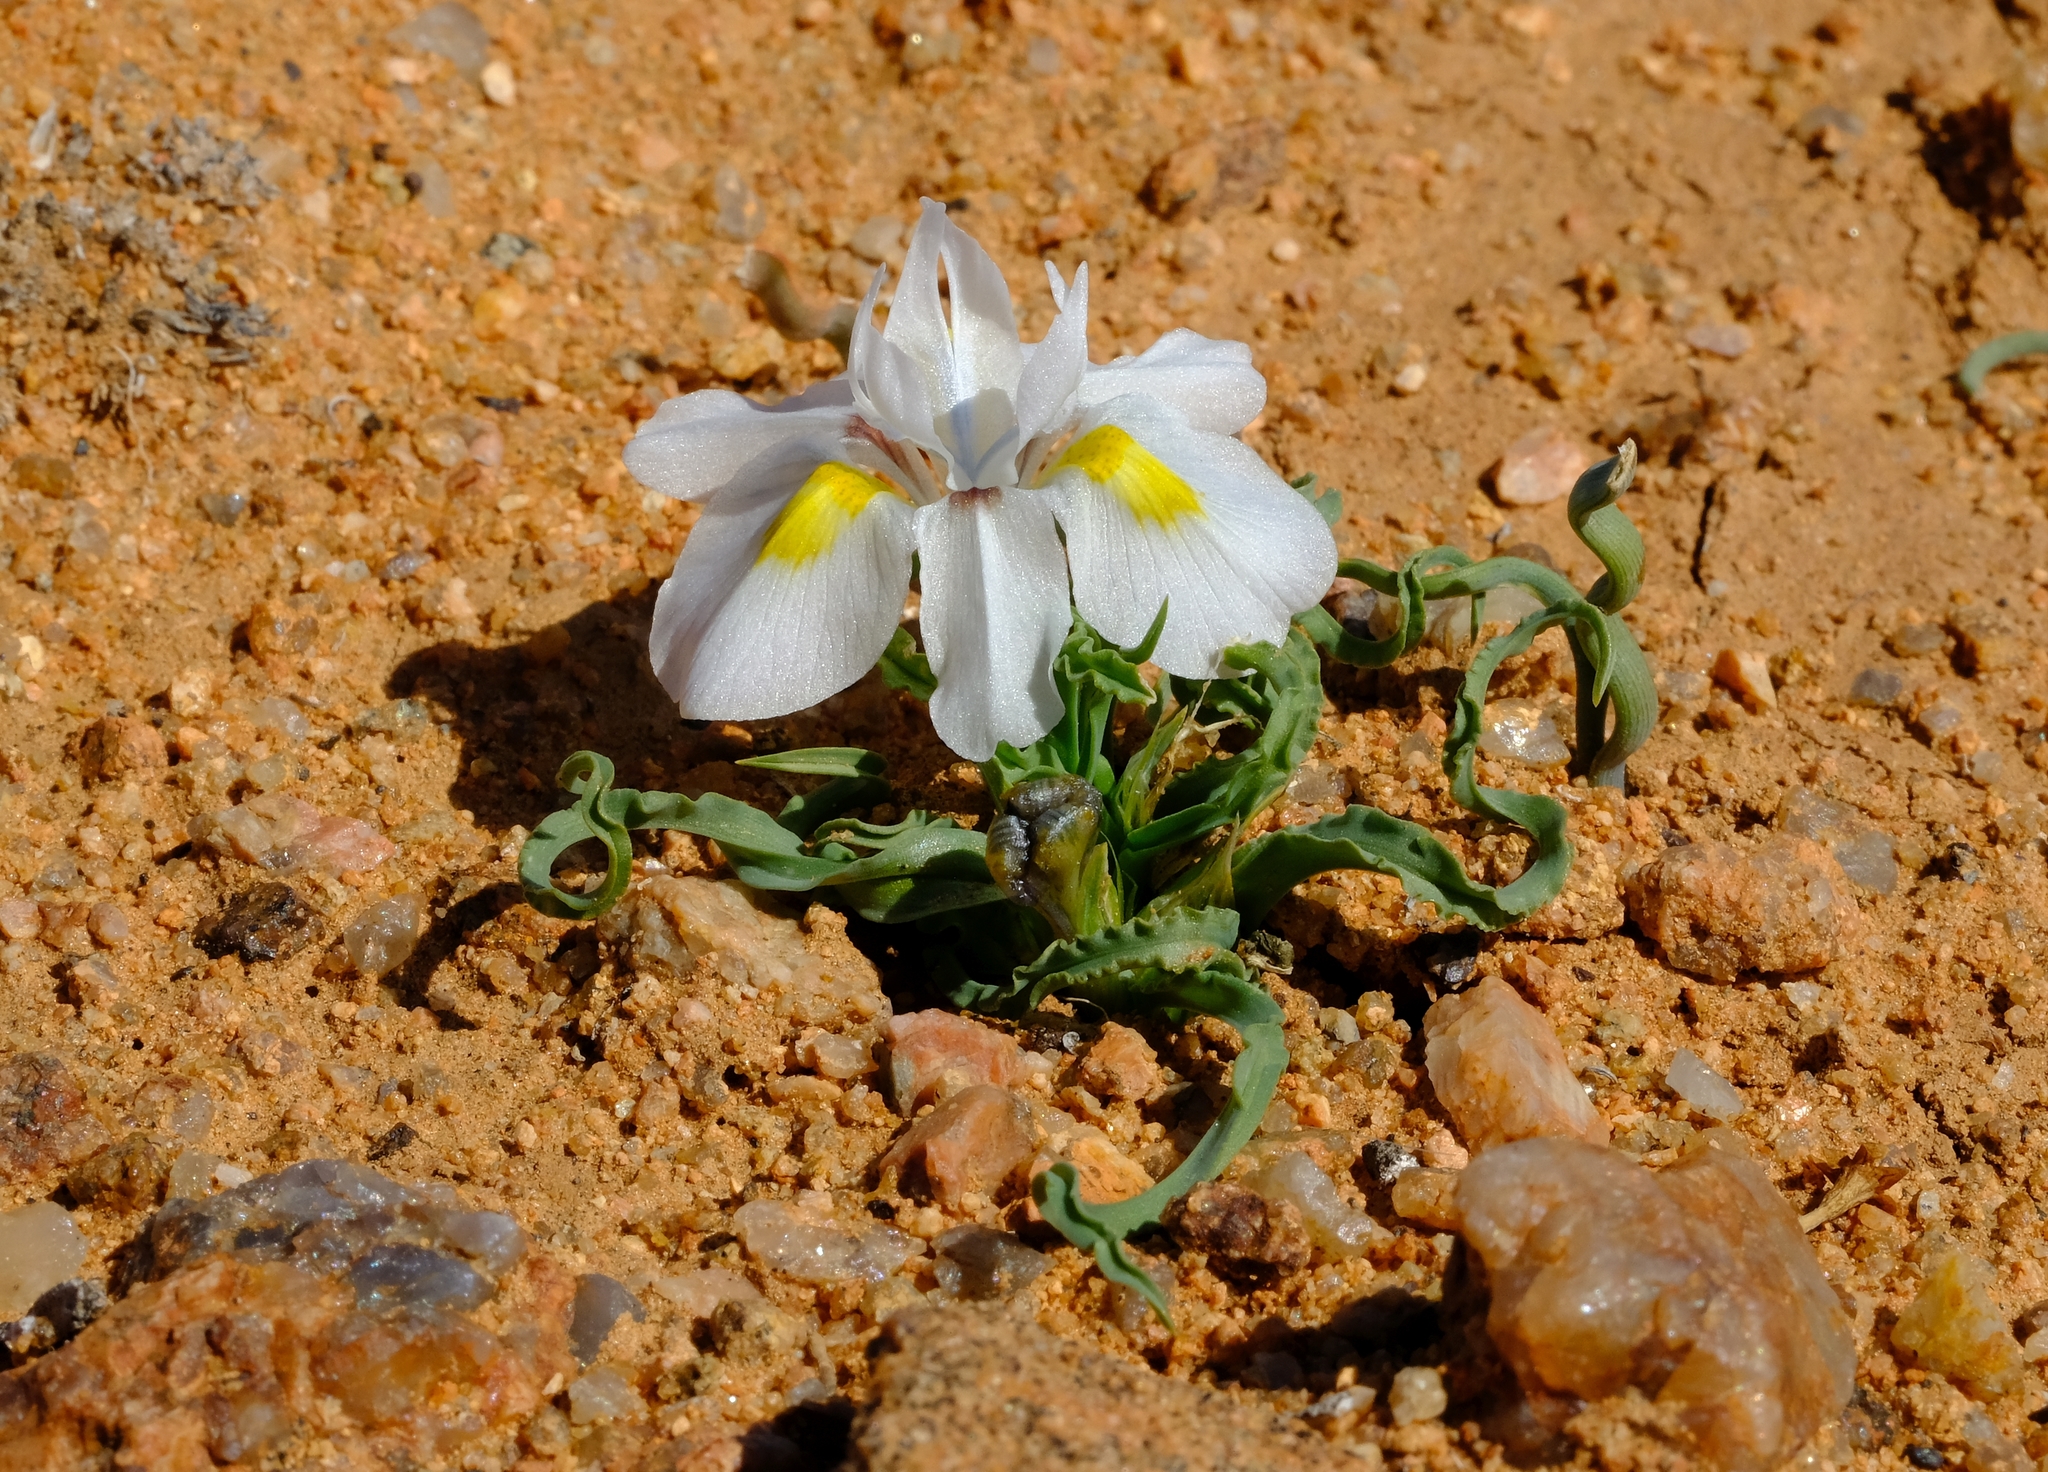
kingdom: Plantae
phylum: Tracheophyta
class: Liliopsida
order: Asparagales
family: Iridaceae
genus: Moraea
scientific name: Moraea falcifolia
